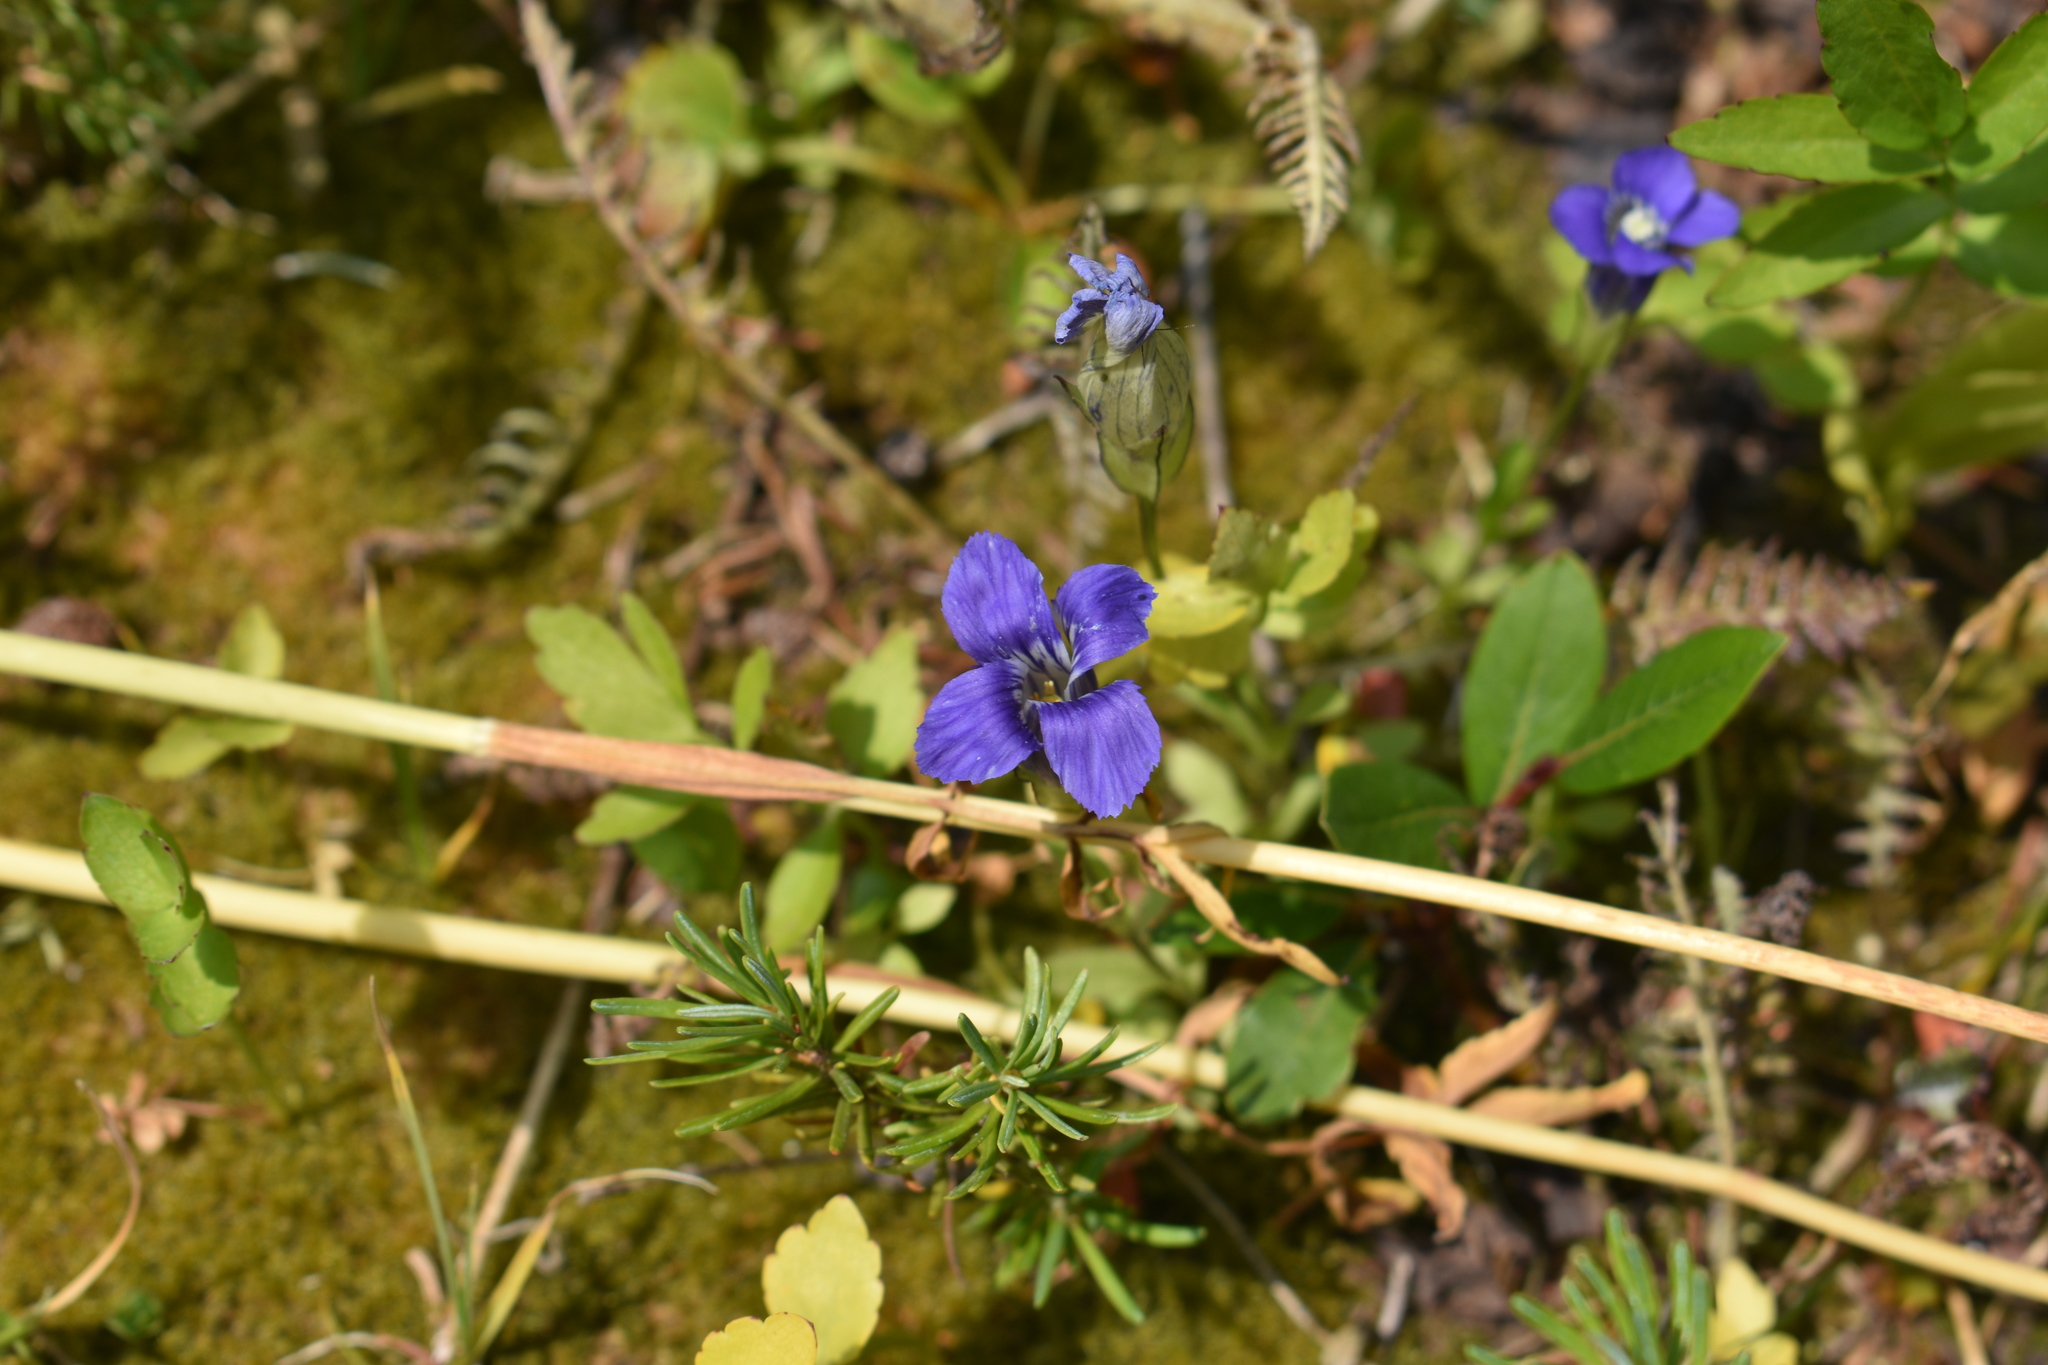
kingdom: Plantae
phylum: Tracheophyta
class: Magnoliopsida
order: Gentianales
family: Gentianaceae
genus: Gentianopsis
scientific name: Gentianopsis thermalis
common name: Rocky mountain fringed-gentian
